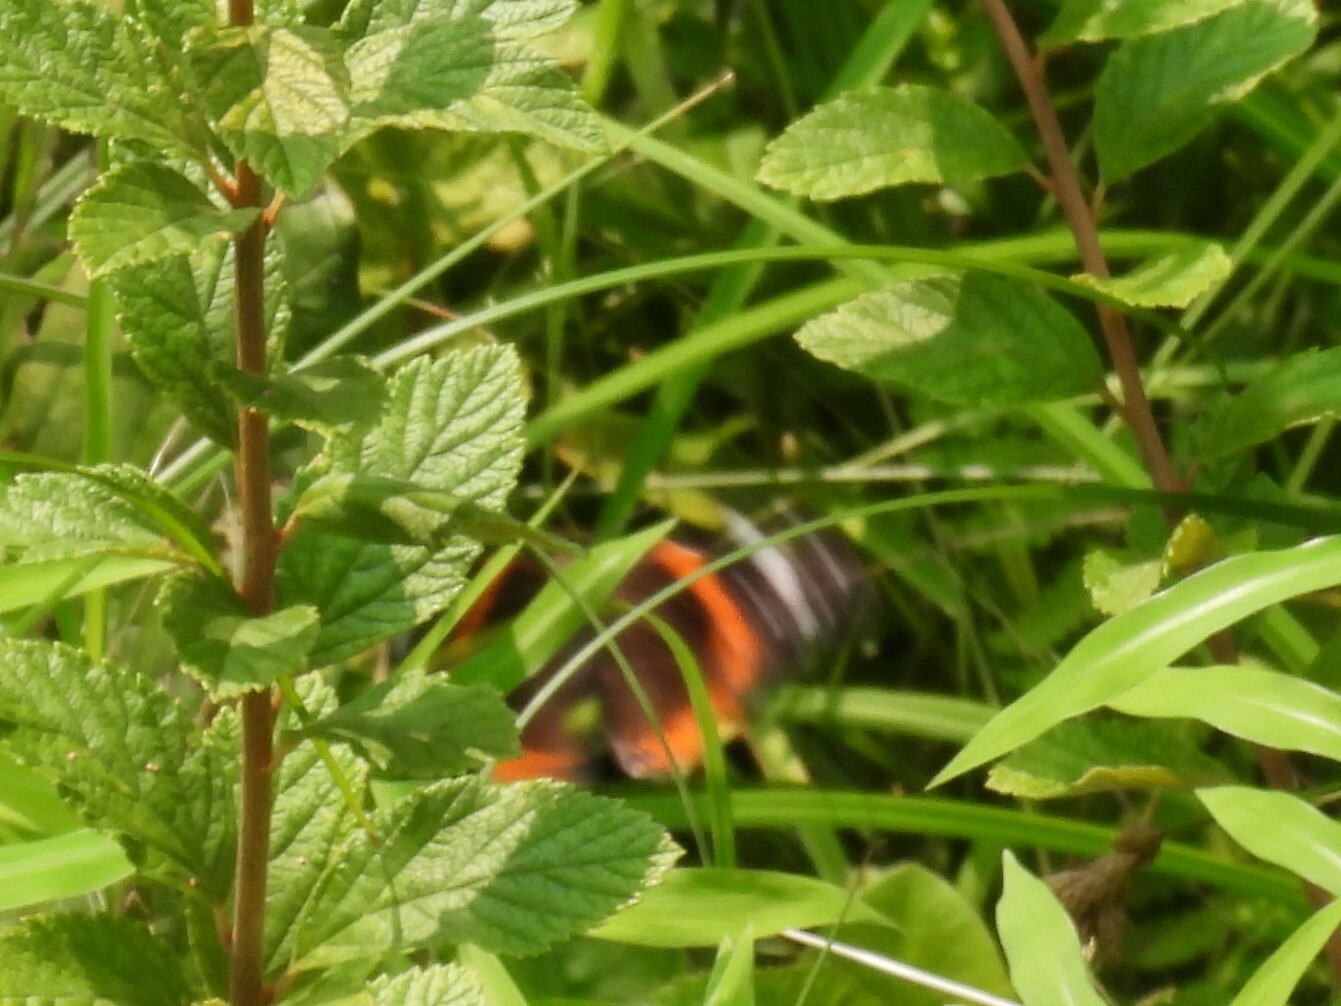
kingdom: Animalia
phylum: Arthropoda
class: Insecta
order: Lepidoptera
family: Nymphalidae
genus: Vanessa
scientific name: Vanessa atalanta
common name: Red admiral
